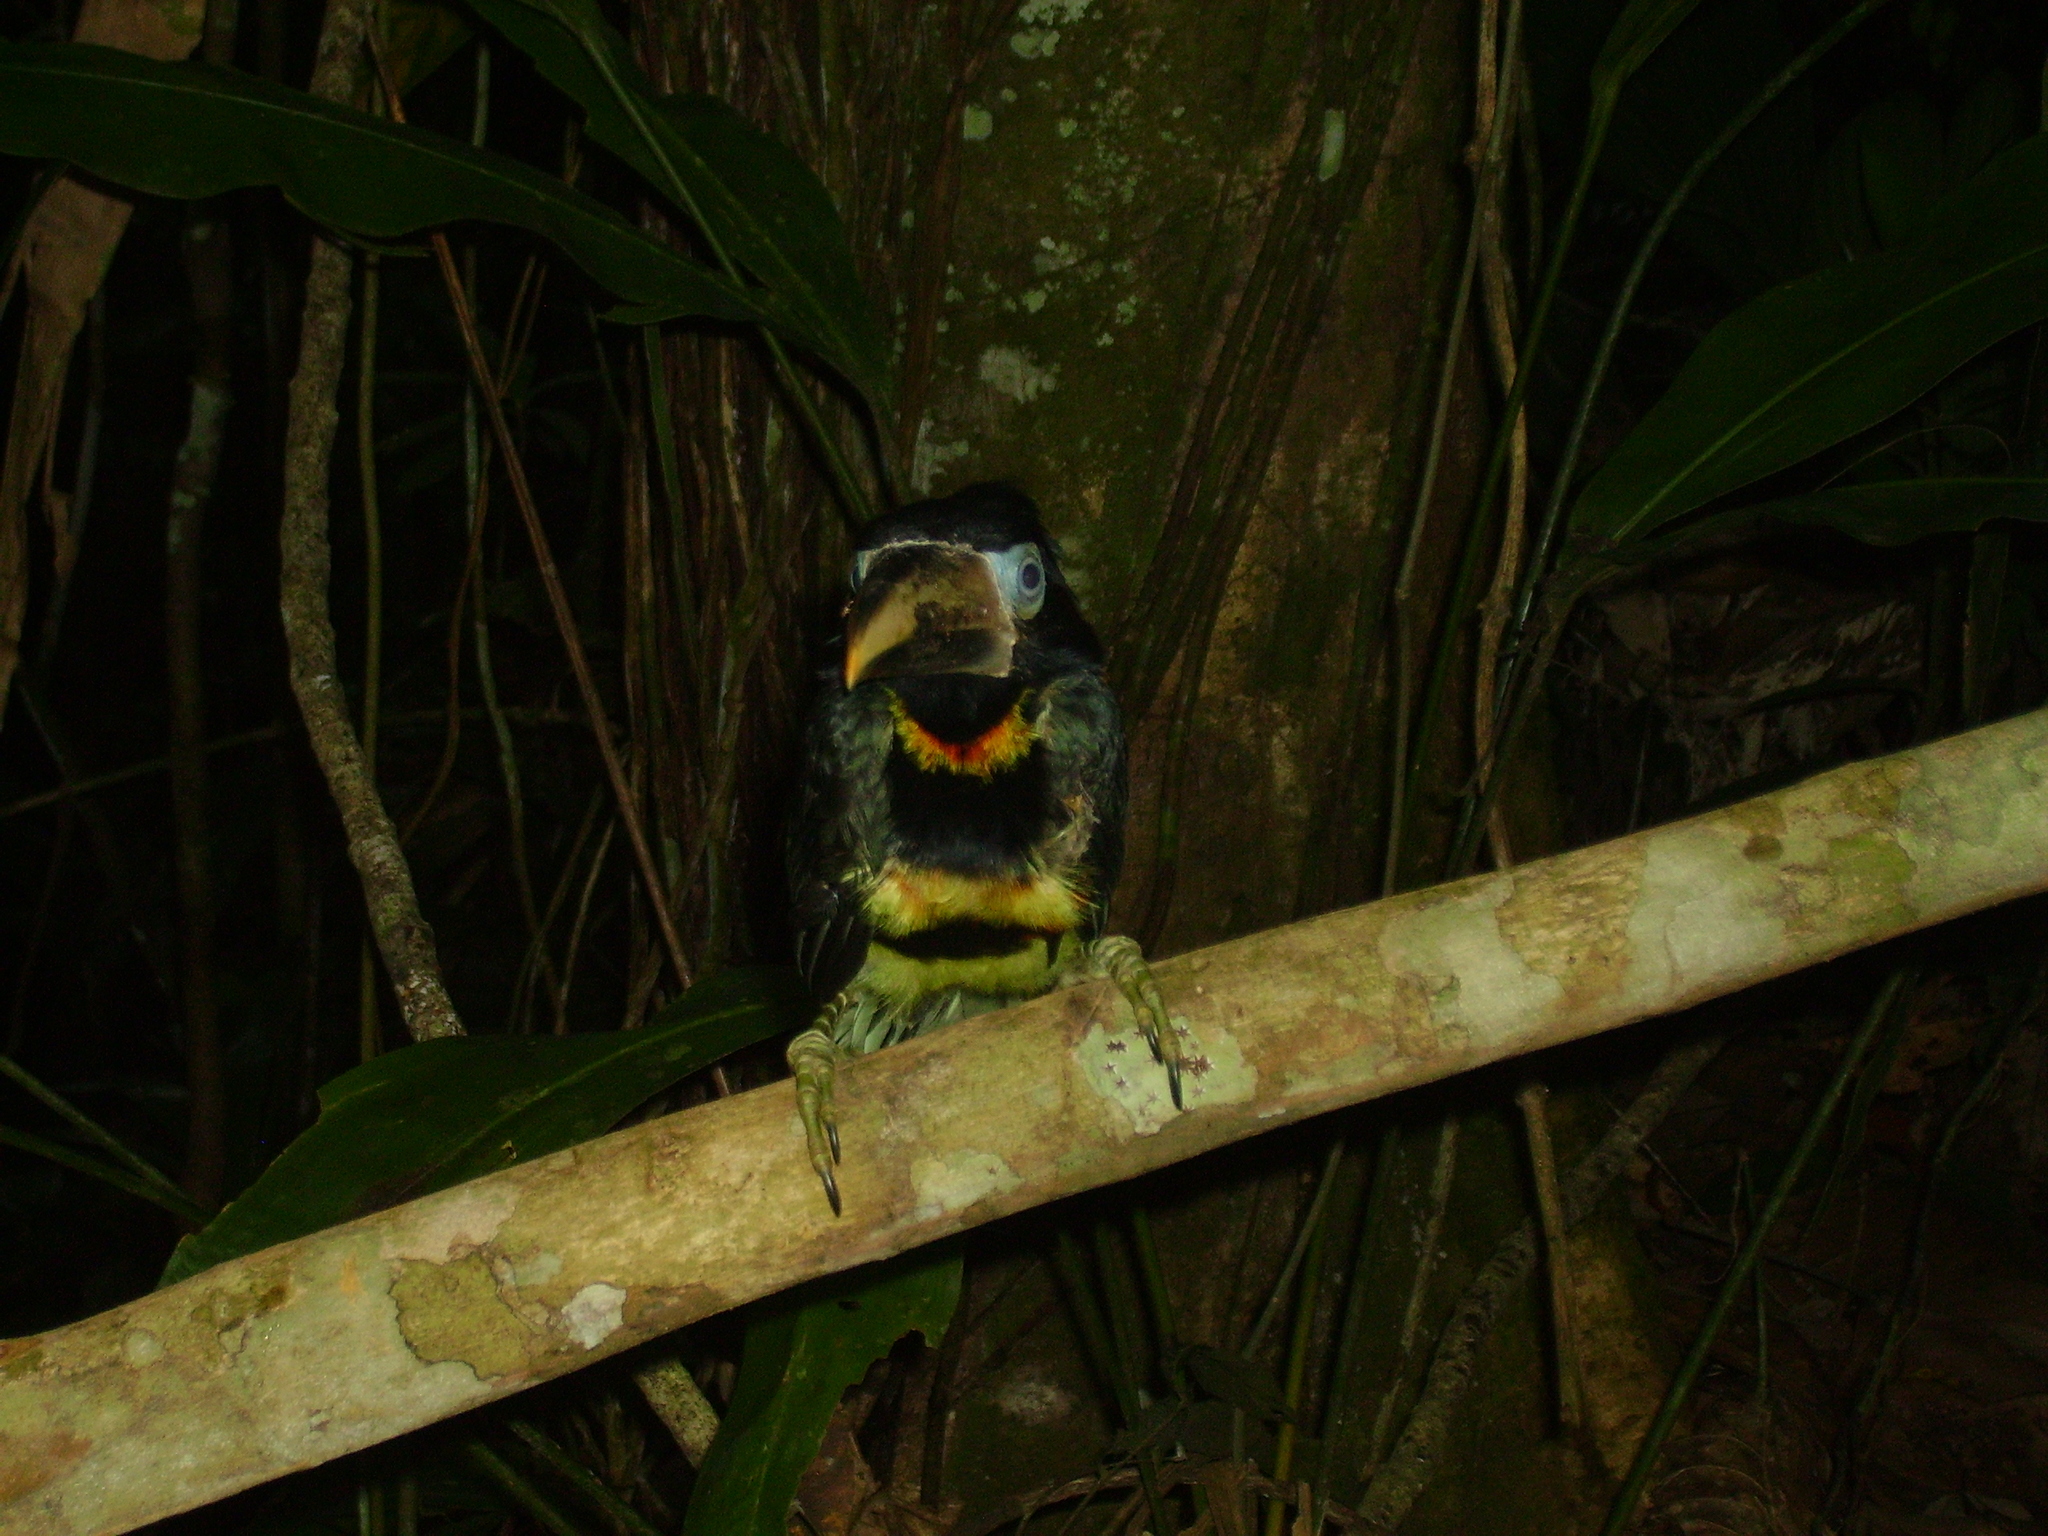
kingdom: Animalia
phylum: Chordata
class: Aves
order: Piciformes
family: Ramphastidae
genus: Pteroglossus
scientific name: Pteroglossus pluricinctus
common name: Many-banded aracari
